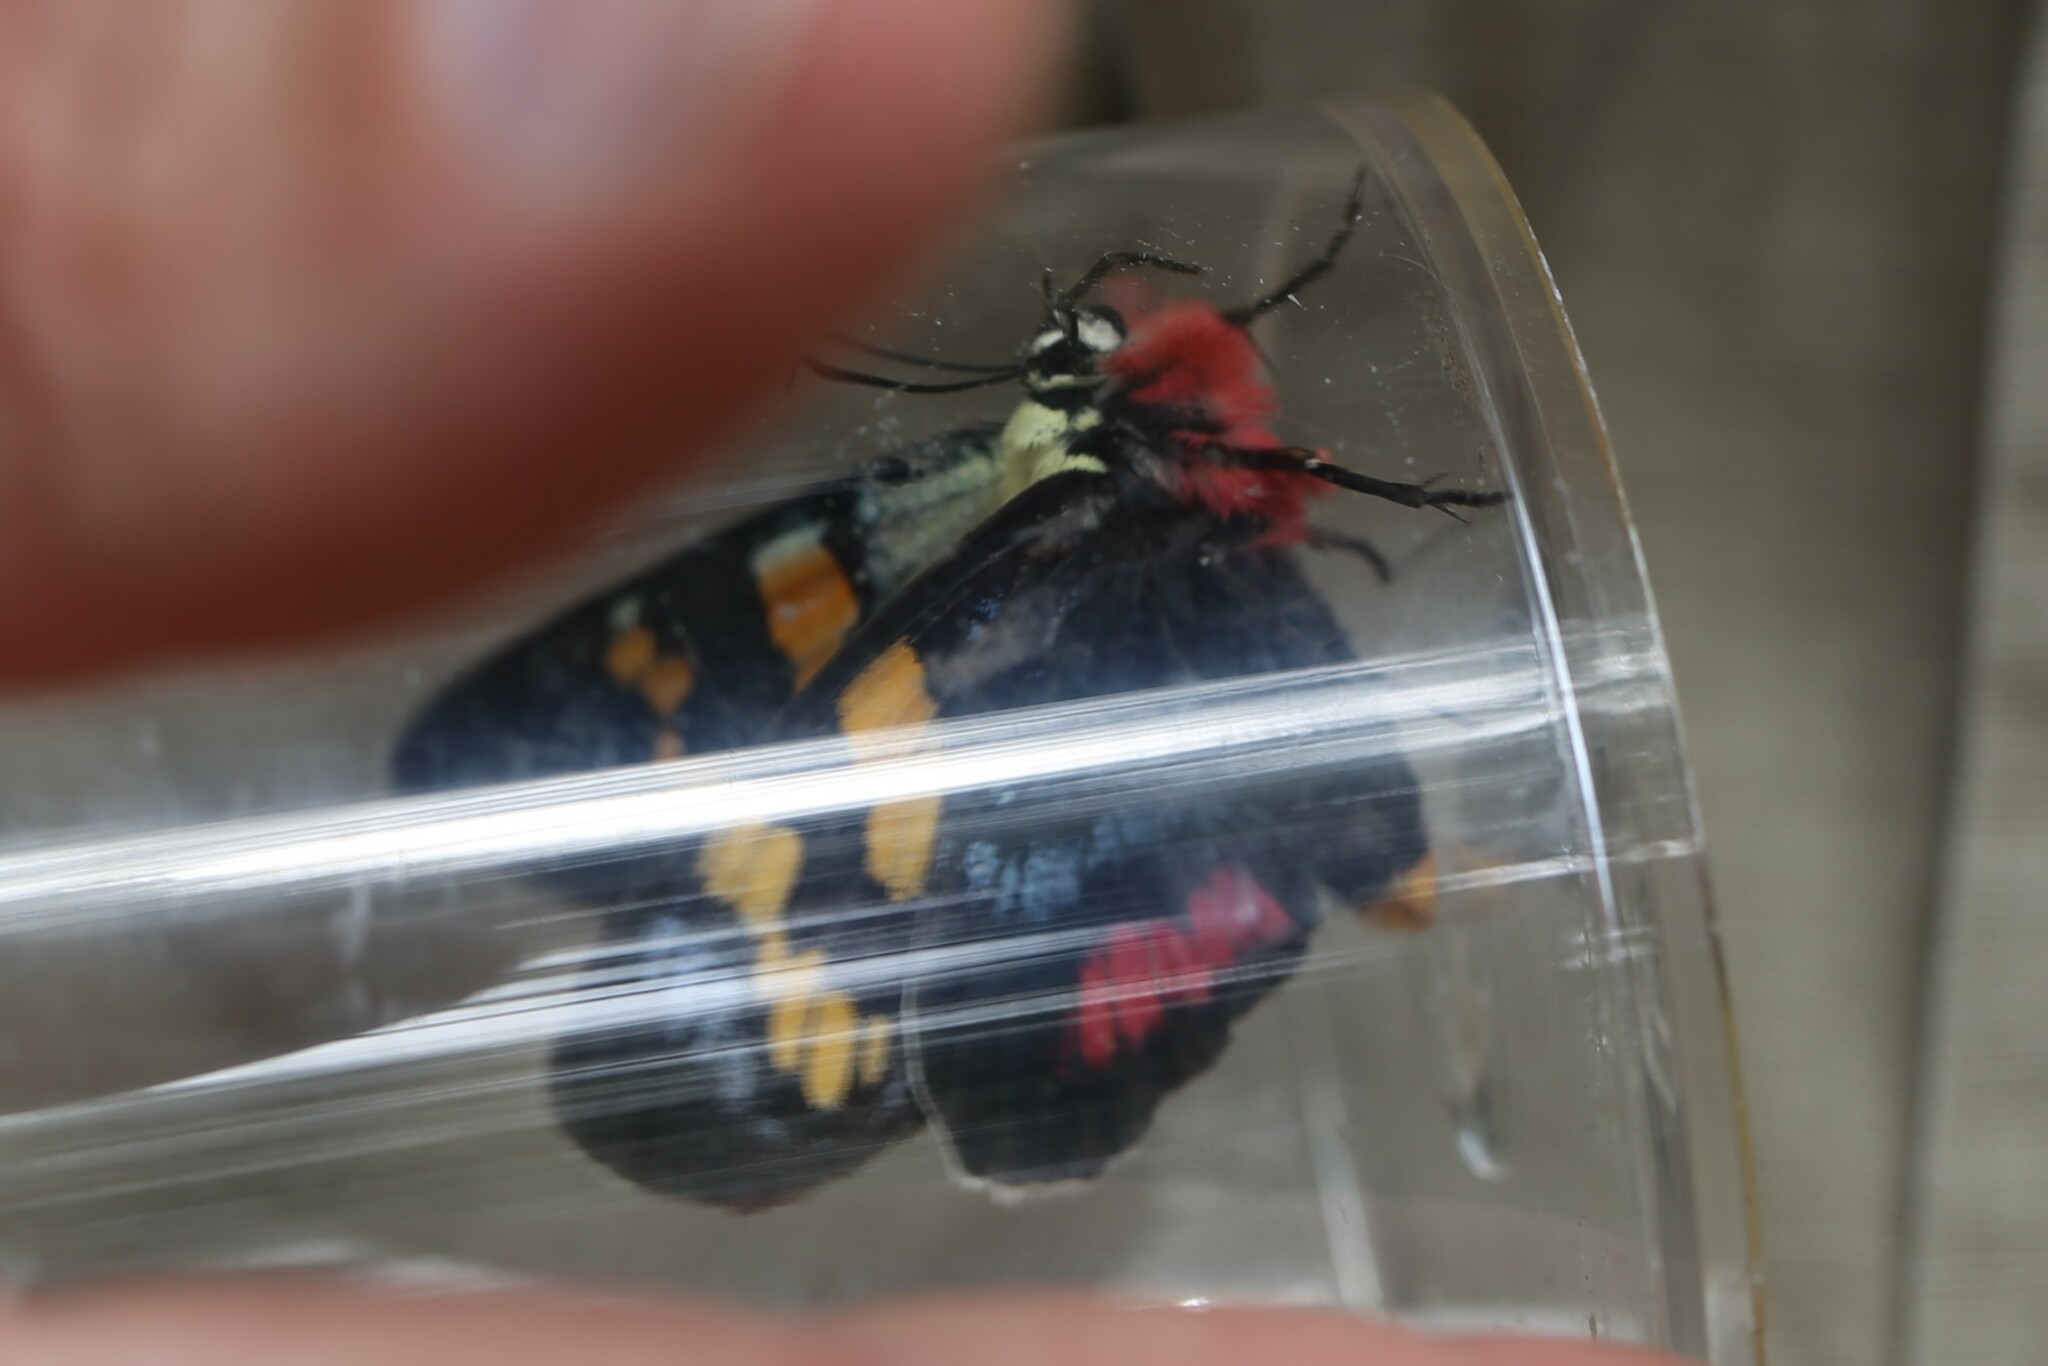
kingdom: Animalia
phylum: Arthropoda
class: Insecta
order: Lepidoptera
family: Noctuidae
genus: Agarista
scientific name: Agarista agricola
